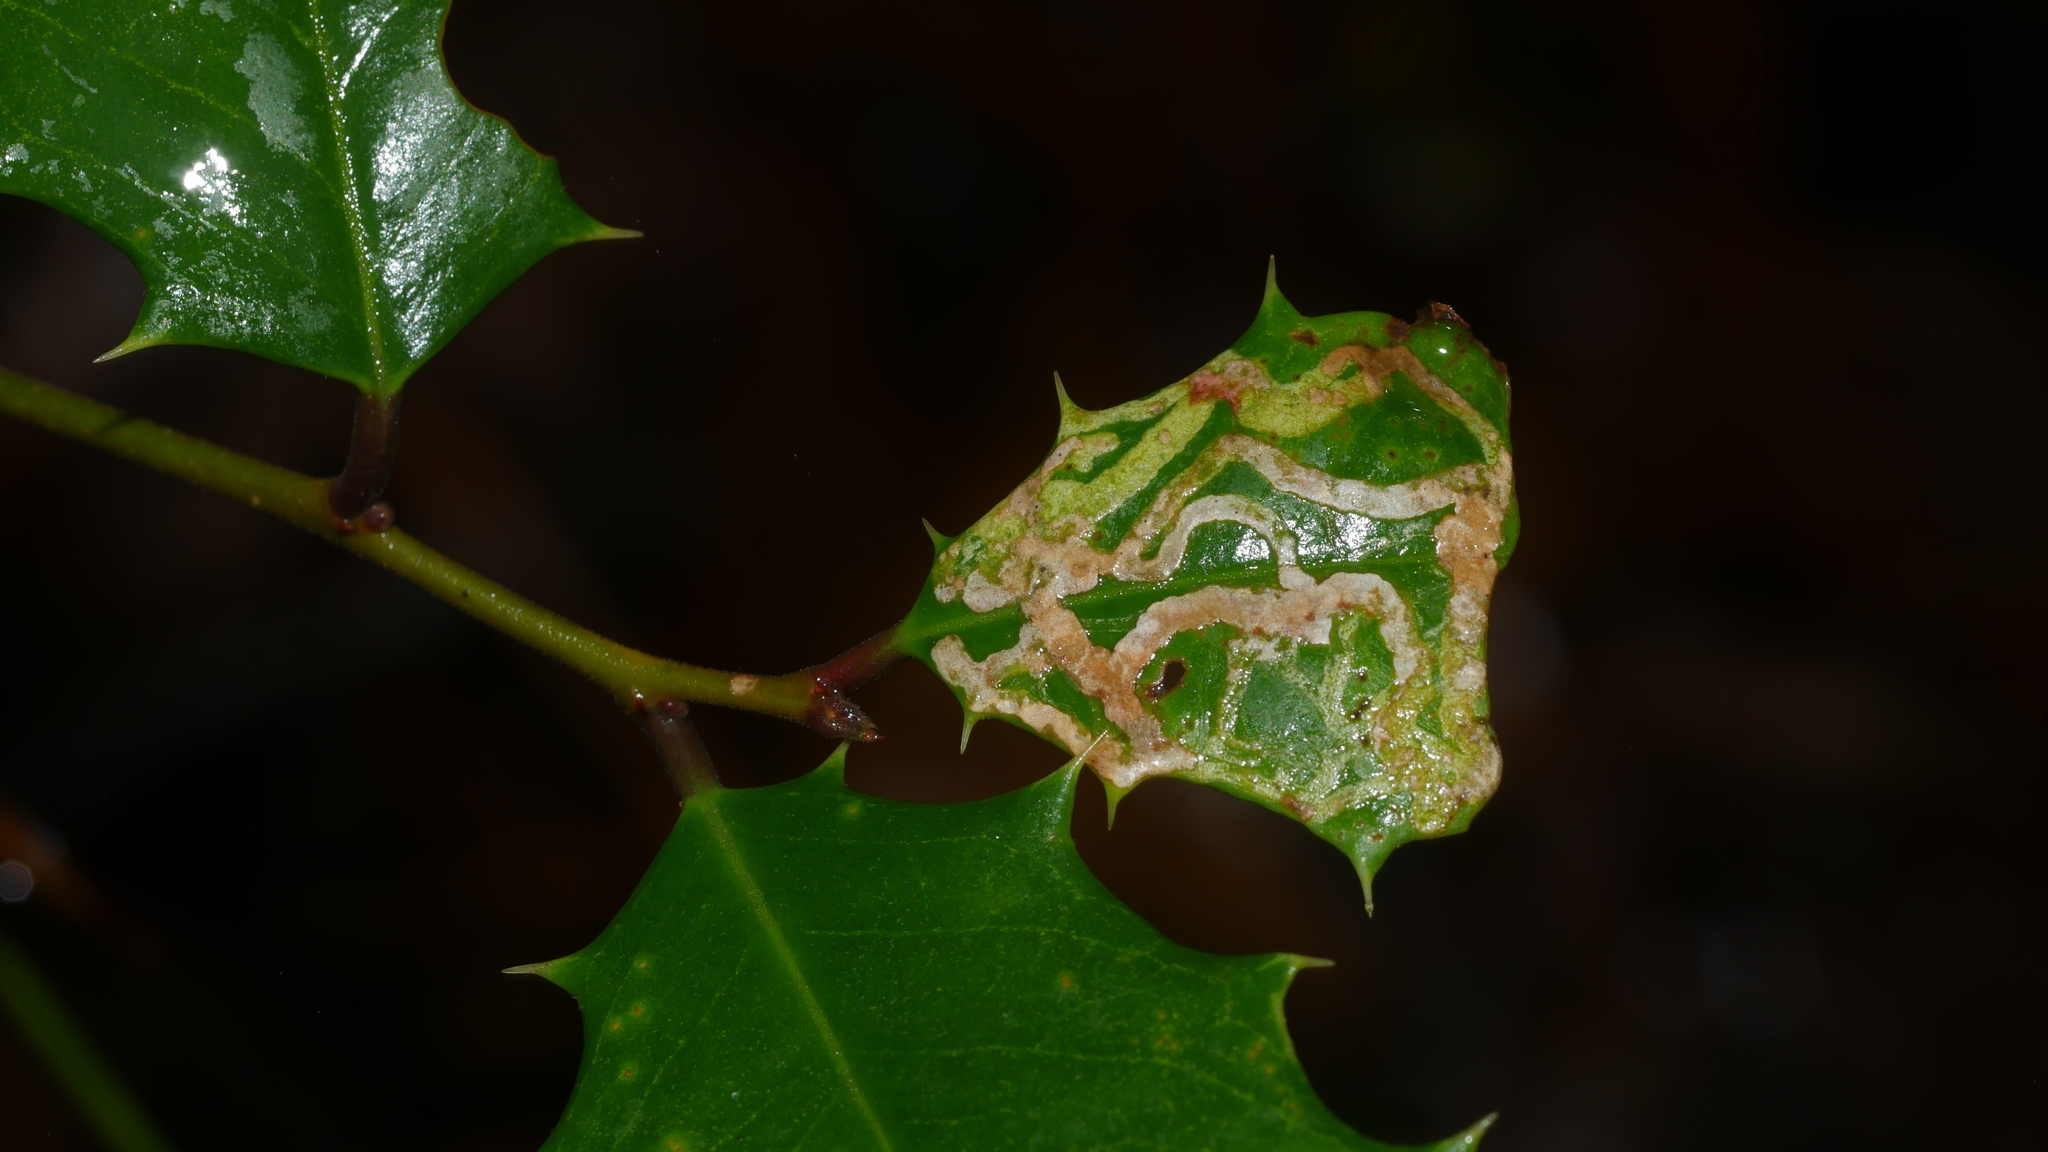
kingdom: Animalia
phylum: Arthropoda
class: Insecta
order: Diptera
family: Agromyzidae
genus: Phytomyza
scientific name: Phytomyza opacae
